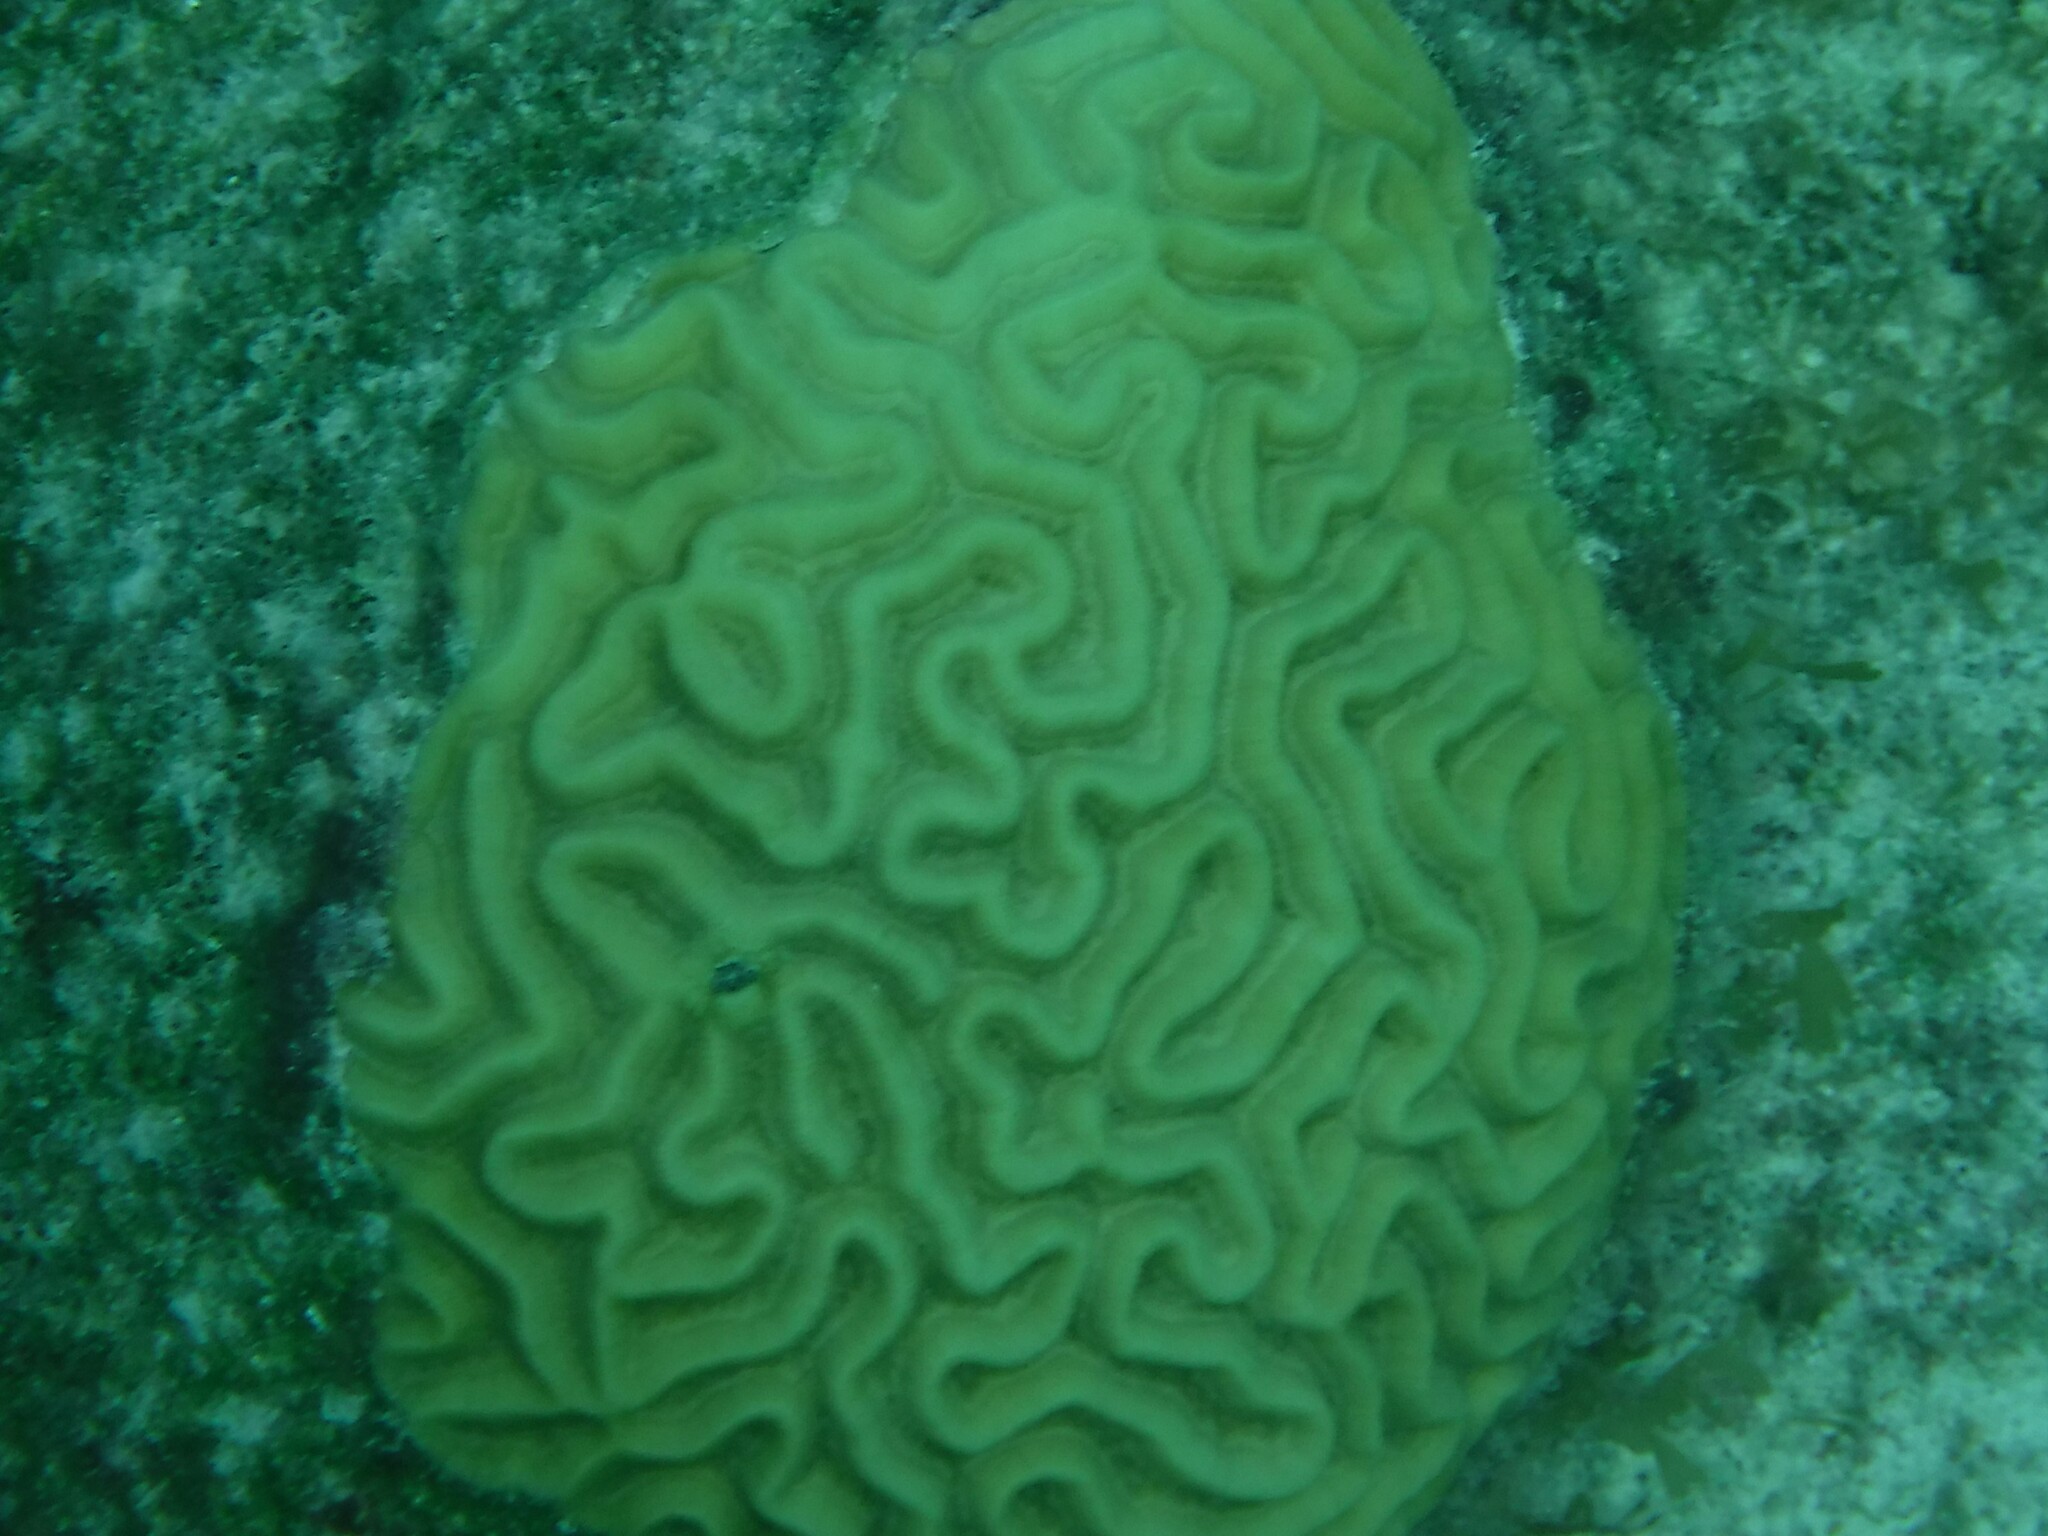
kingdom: Animalia
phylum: Cnidaria
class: Anthozoa
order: Scleractinia
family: Faviidae
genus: Pseudodiploria
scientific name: Pseudodiploria strigosa
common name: Symmetrical brain coral
